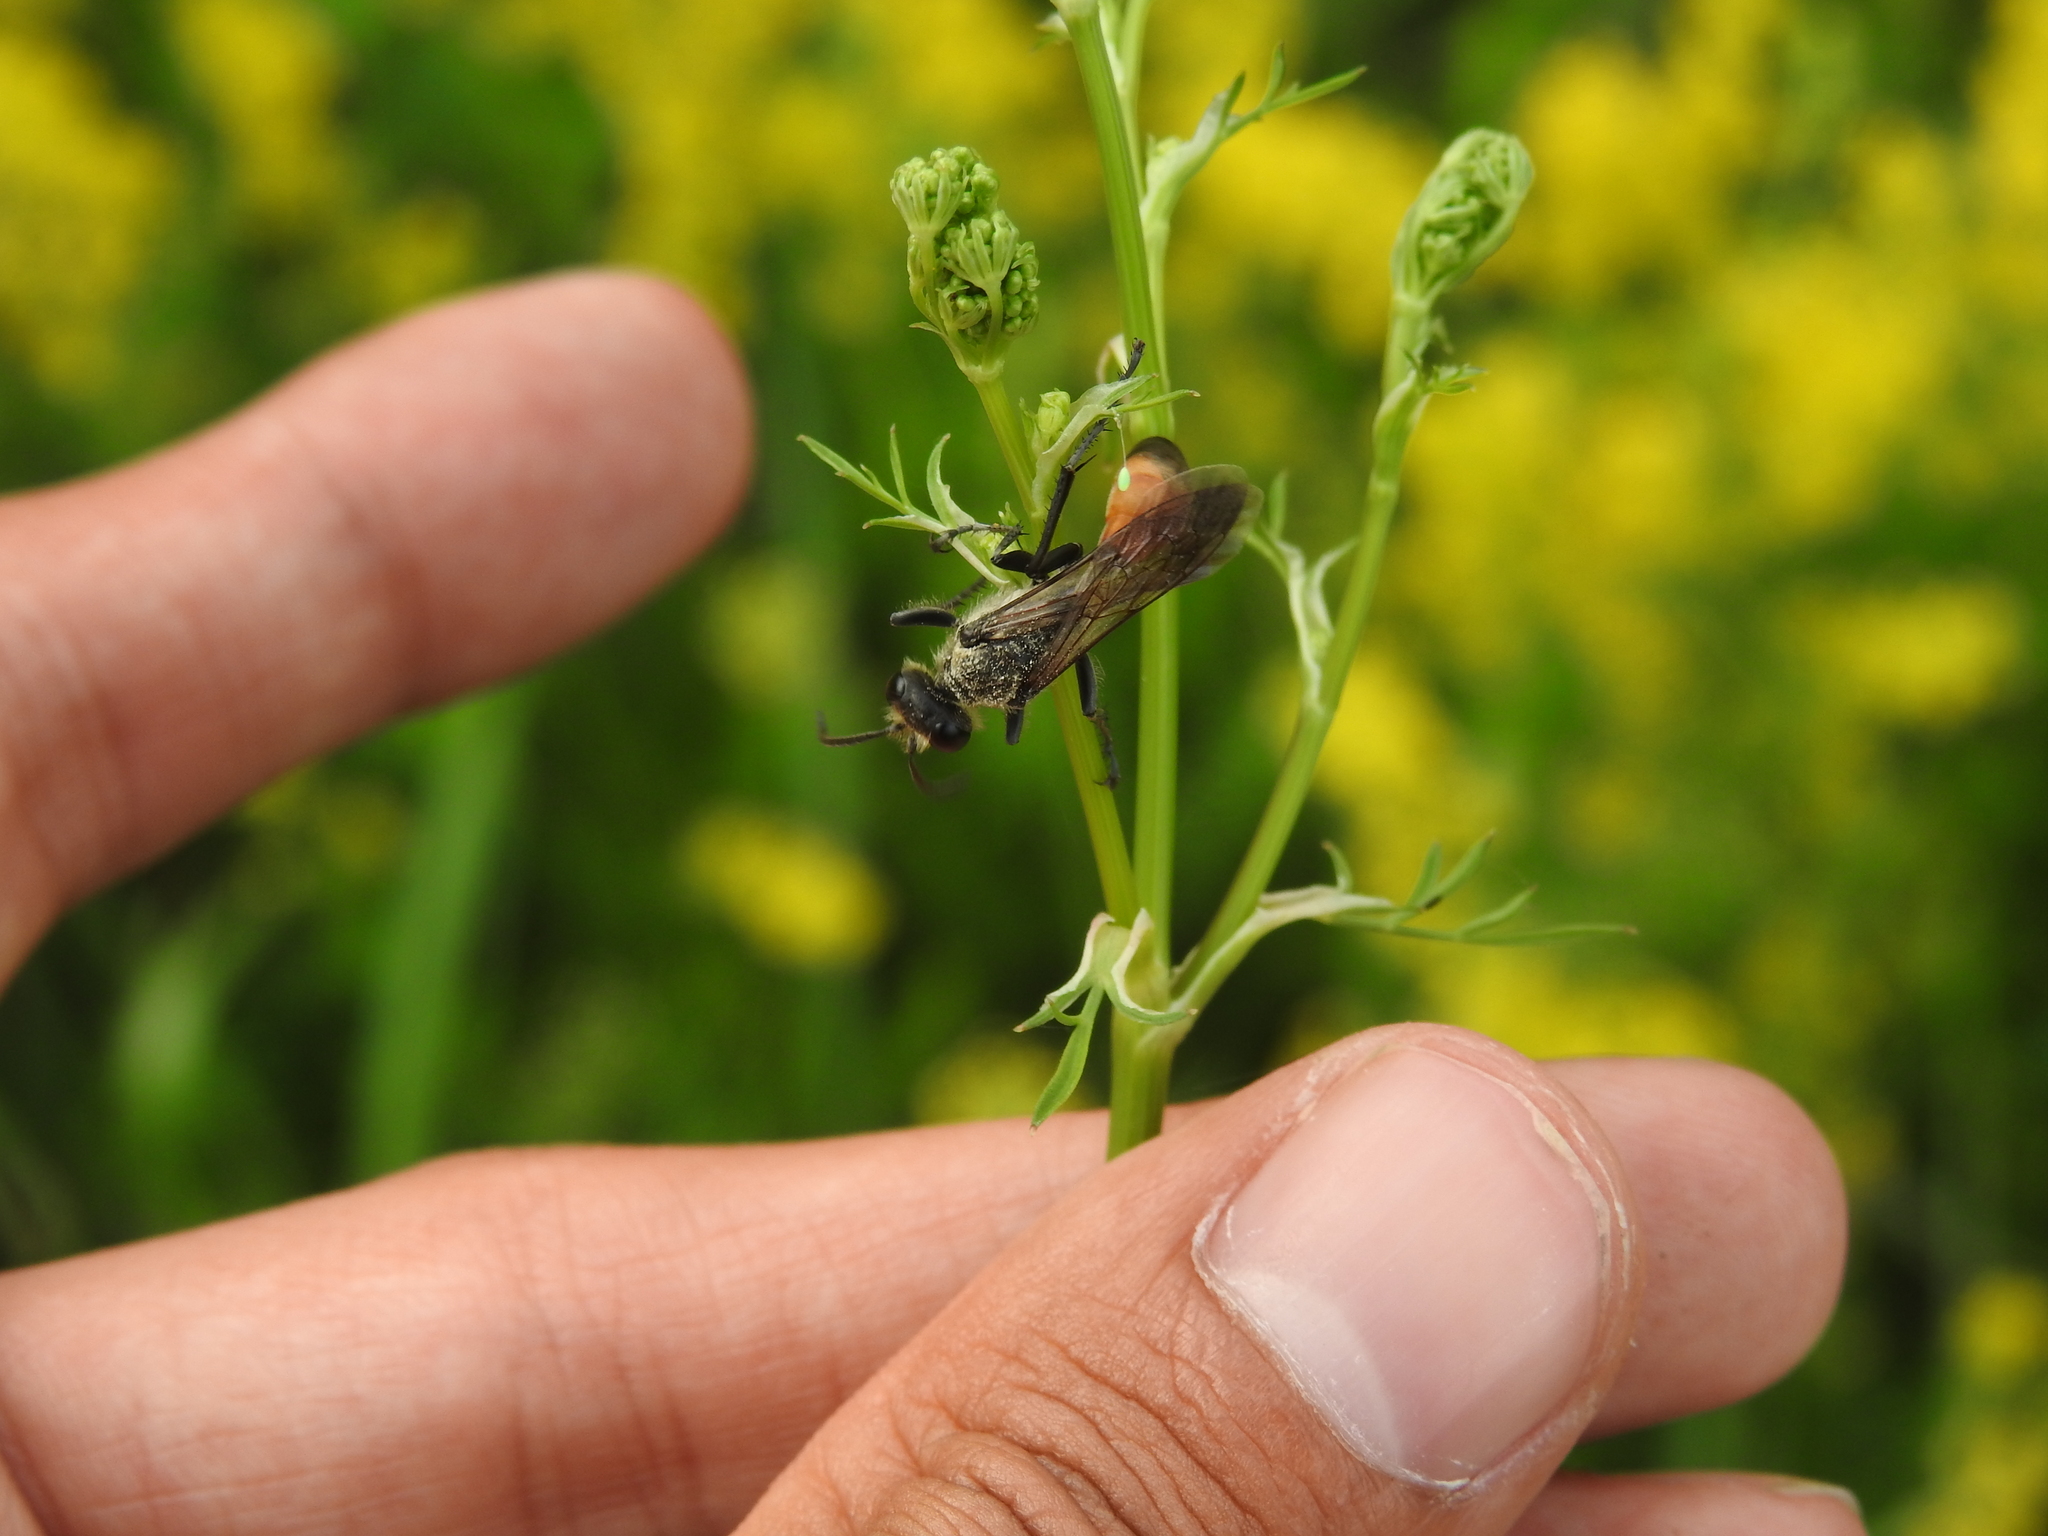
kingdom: Animalia
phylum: Arthropoda
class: Insecta
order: Hymenoptera
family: Sphecidae
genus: Sphex
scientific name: Sphex funerarius
